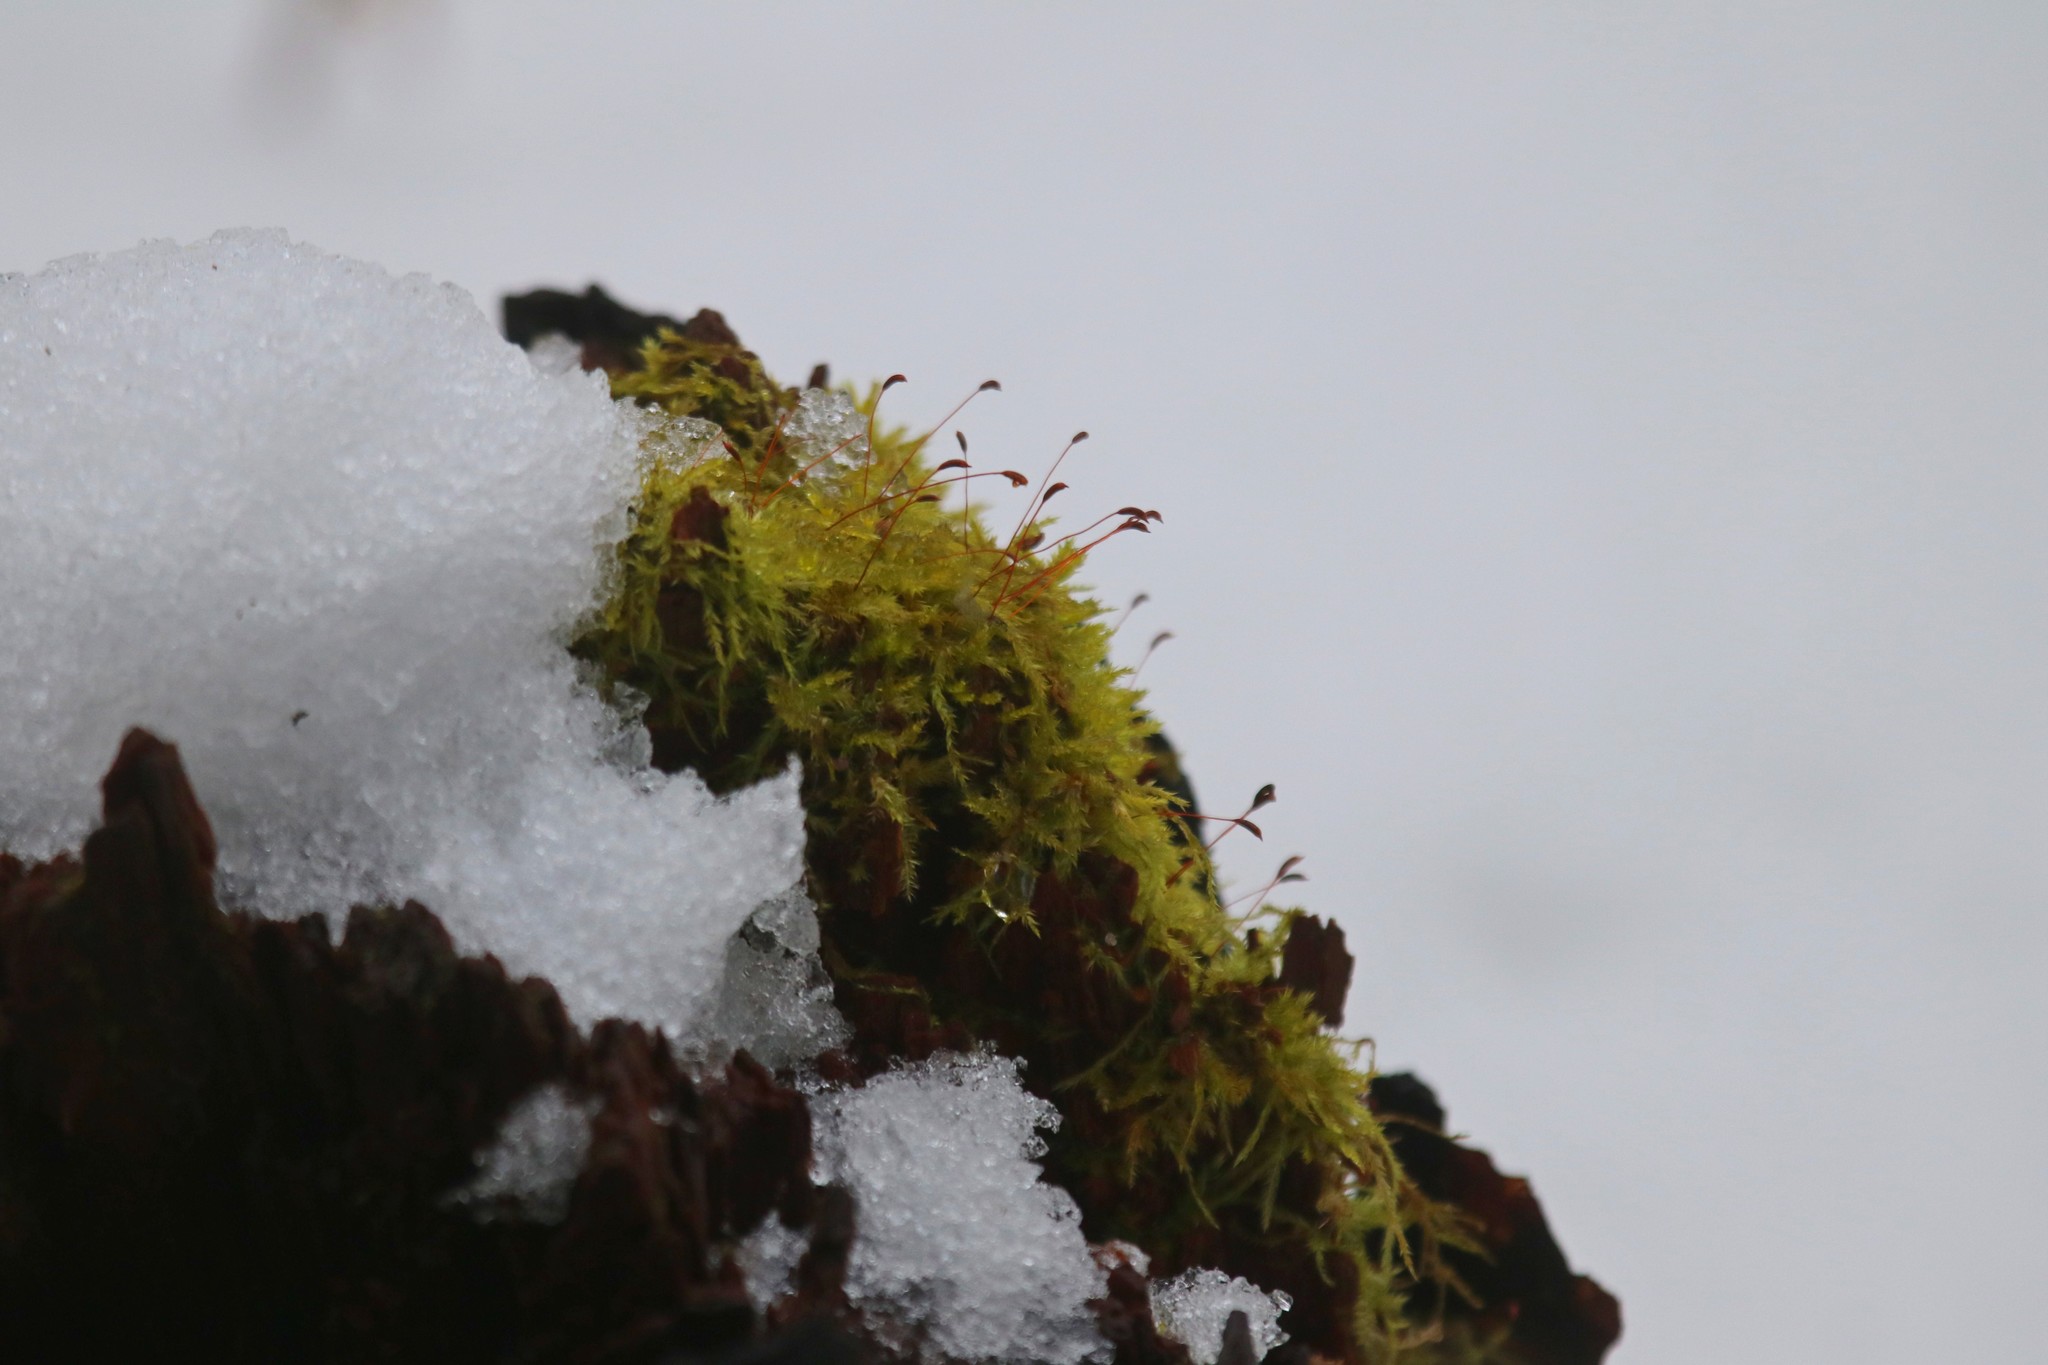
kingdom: Plantae
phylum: Bryophyta
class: Bryopsida
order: Hypnales
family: Amblystegiaceae
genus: Amblystegium
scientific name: Amblystegium serpens
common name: Jurkatzka's feather moss
